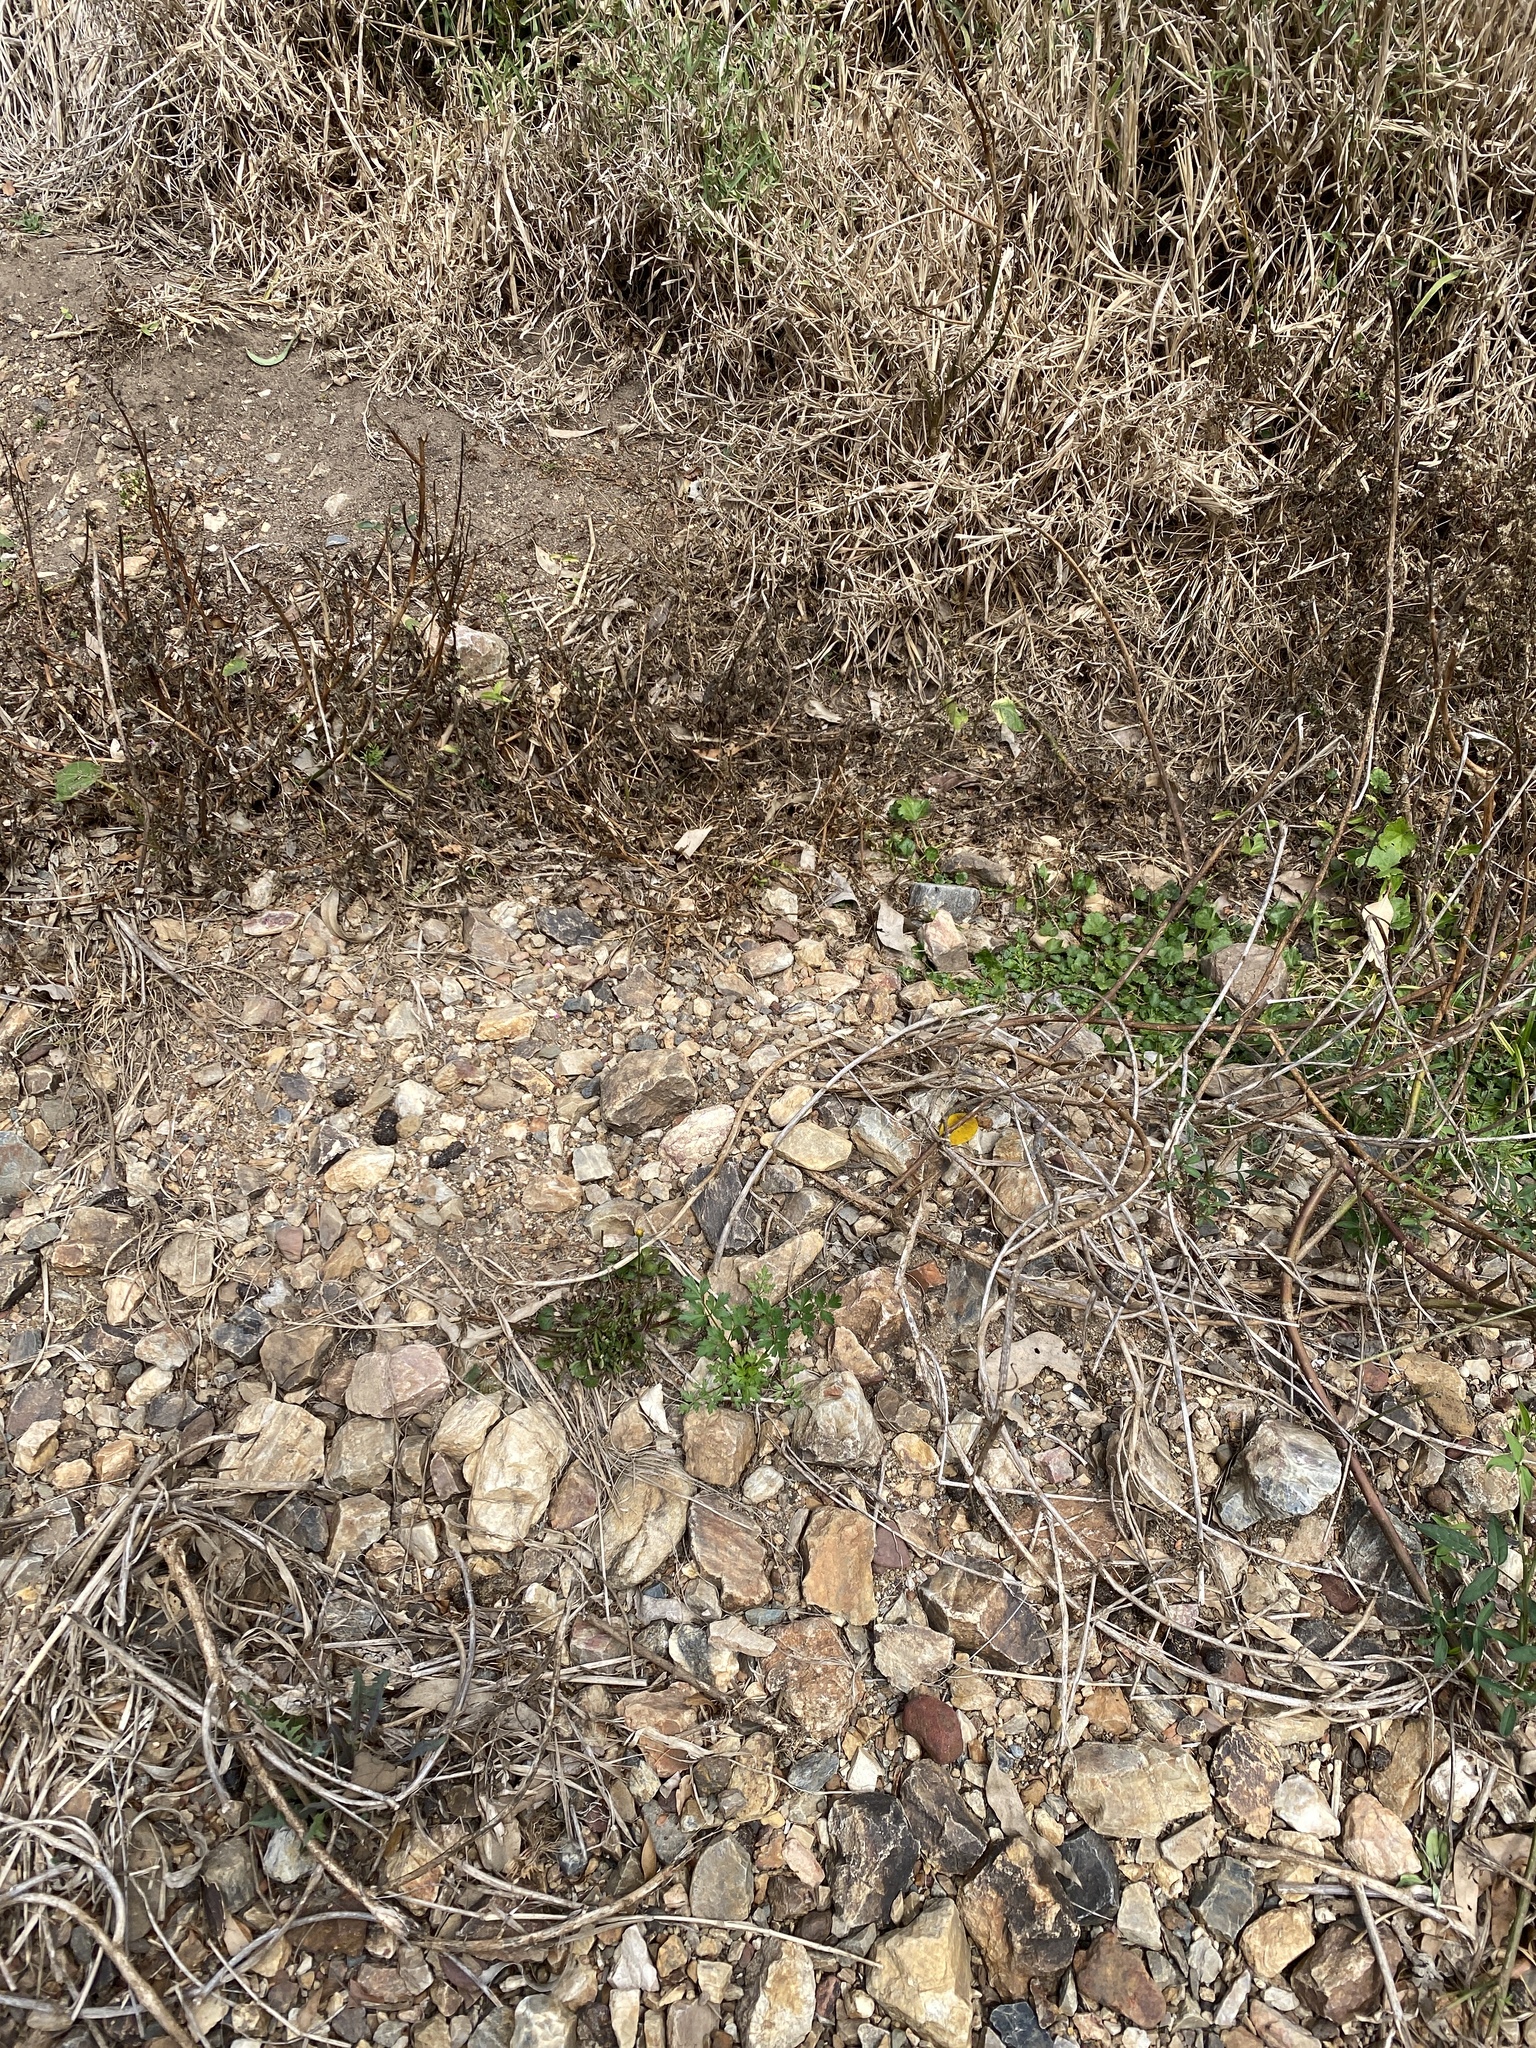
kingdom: Plantae
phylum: Tracheophyta
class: Magnoliopsida
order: Apiales
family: Apiaceae
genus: Petroselinum
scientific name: Petroselinum crispum
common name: Parsley
